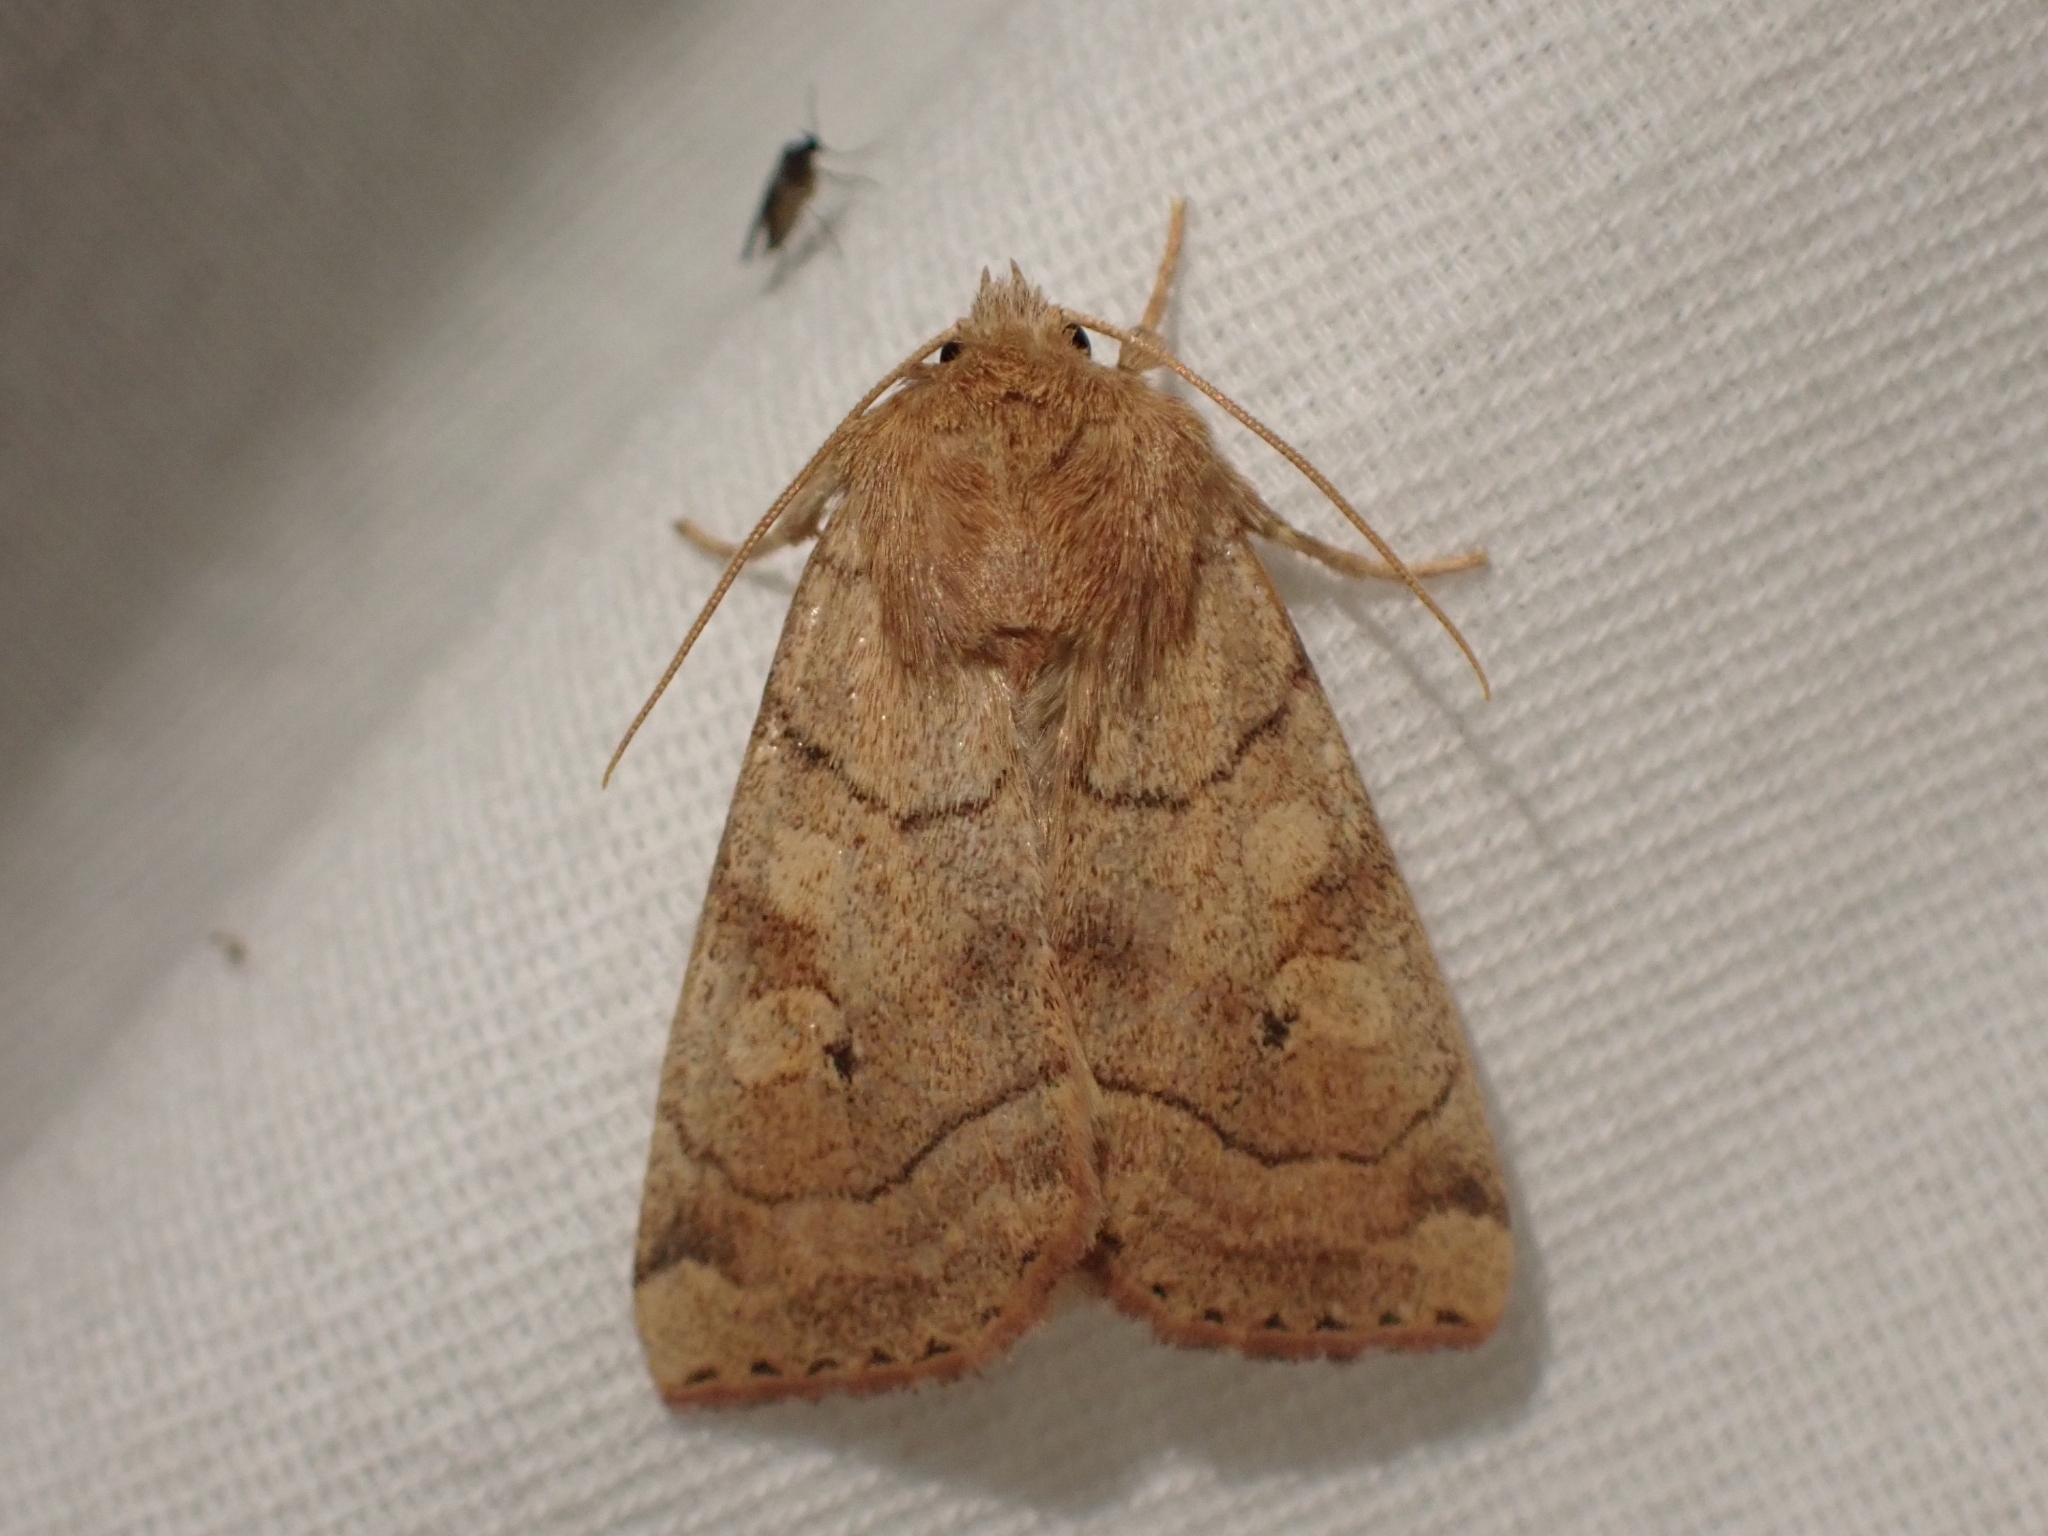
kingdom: Animalia
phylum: Arthropoda
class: Insecta
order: Lepidoptera
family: Noctuidae
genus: Enargia
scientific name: Enargia fausta
